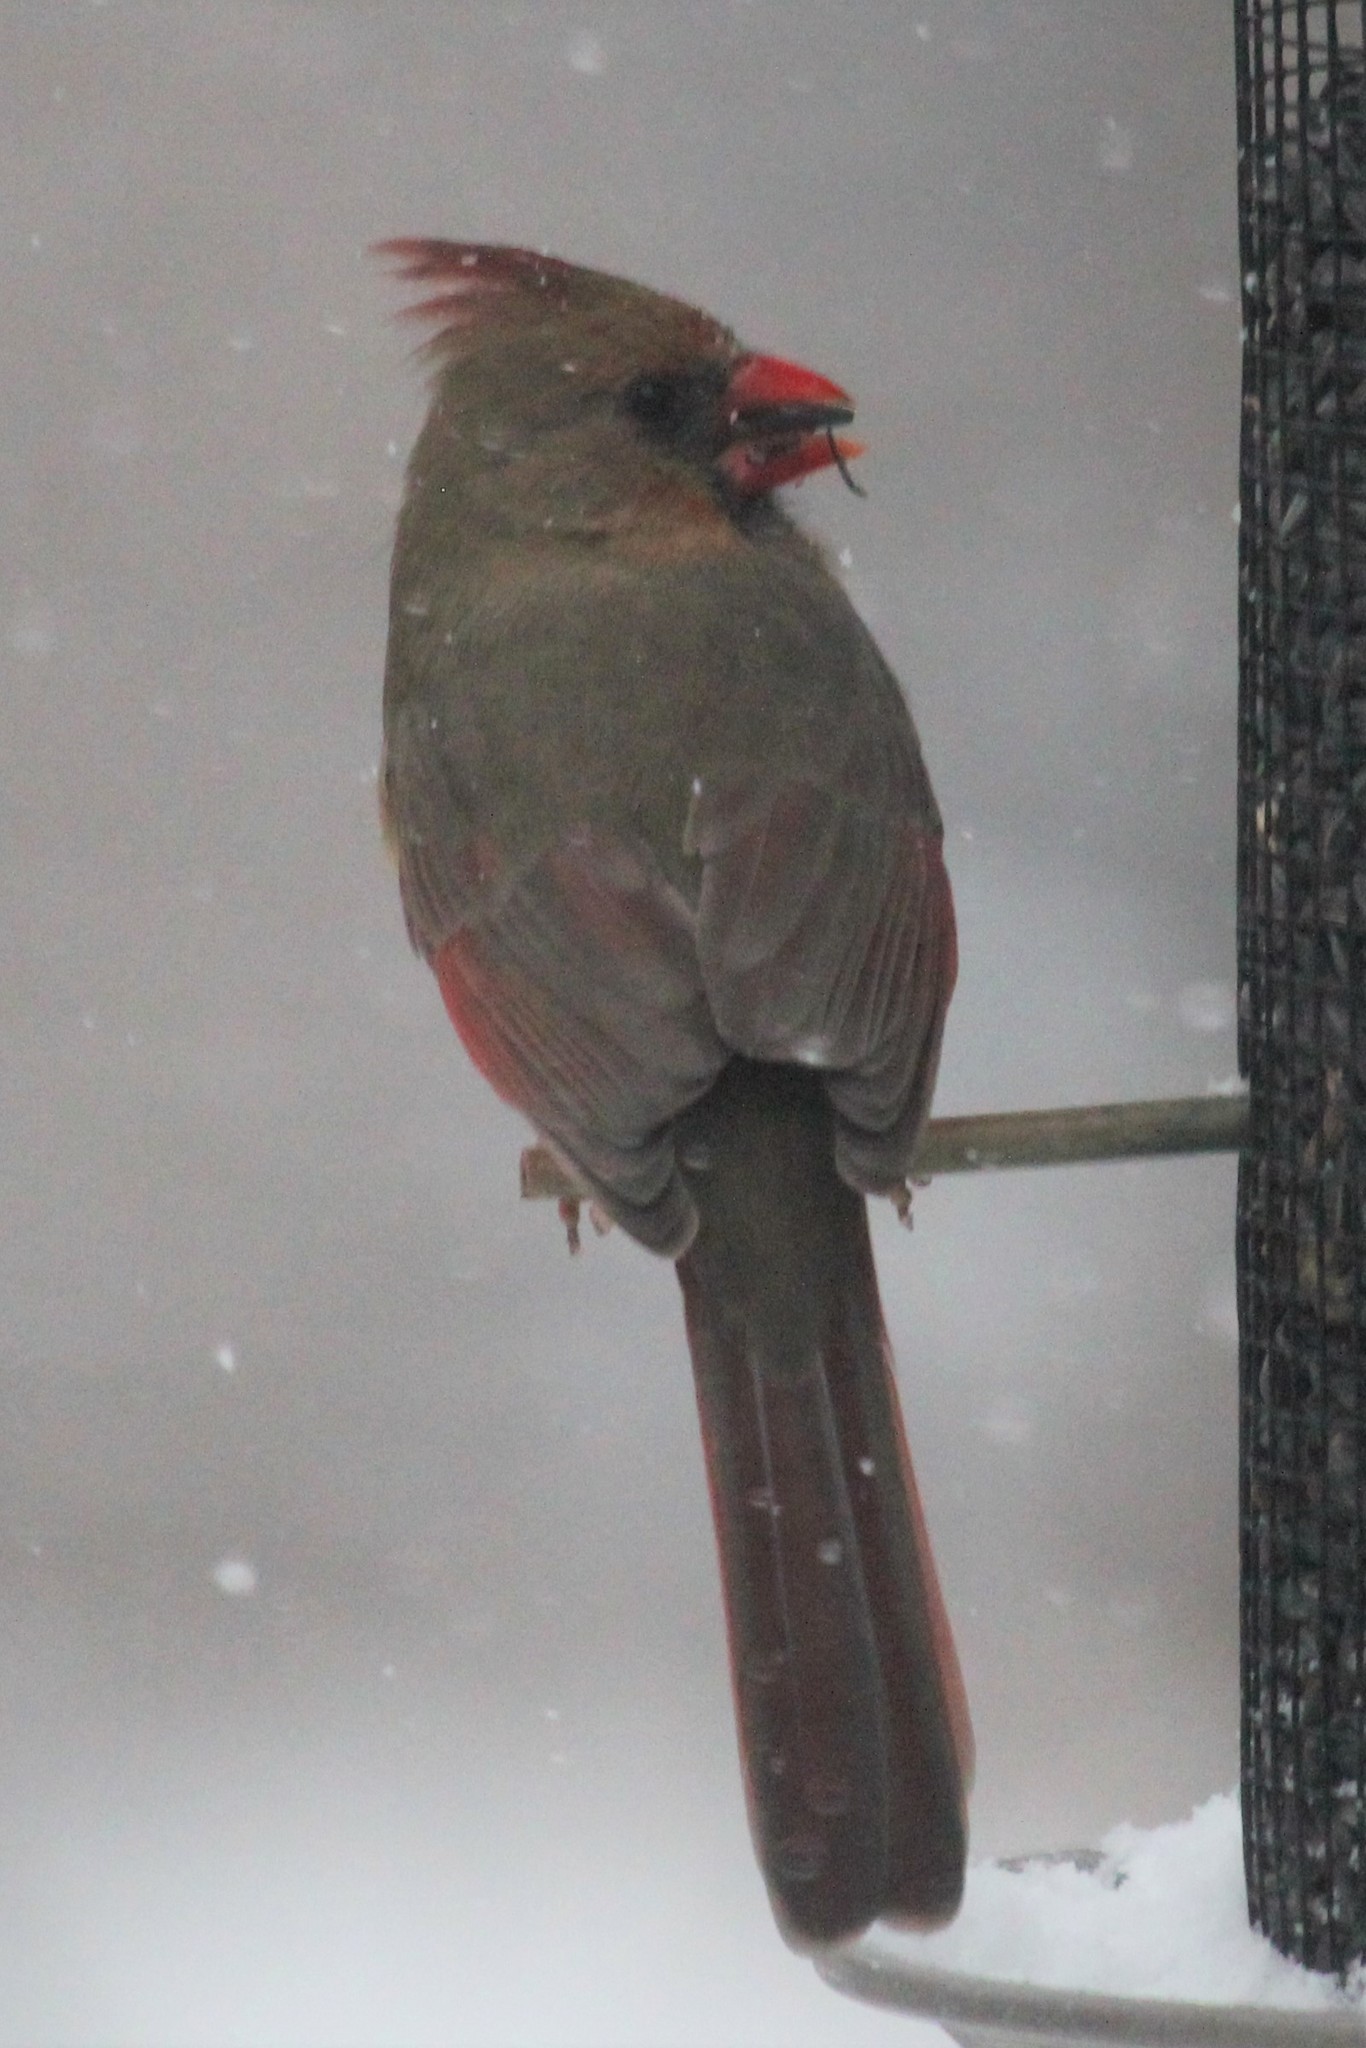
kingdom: Animalia
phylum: Chordata
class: Aves
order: Passeriformes
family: Cardinalidae
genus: Cardinalis
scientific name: Cardinalis cardinalis
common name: Northern cardinal
